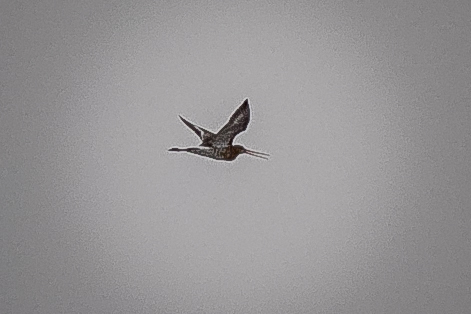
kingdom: Animalia
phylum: Chordata
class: Aves
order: Charadriiformes
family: Scolopacidae
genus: Limosa
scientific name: Limosa limosa
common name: Black-tailed godwit
